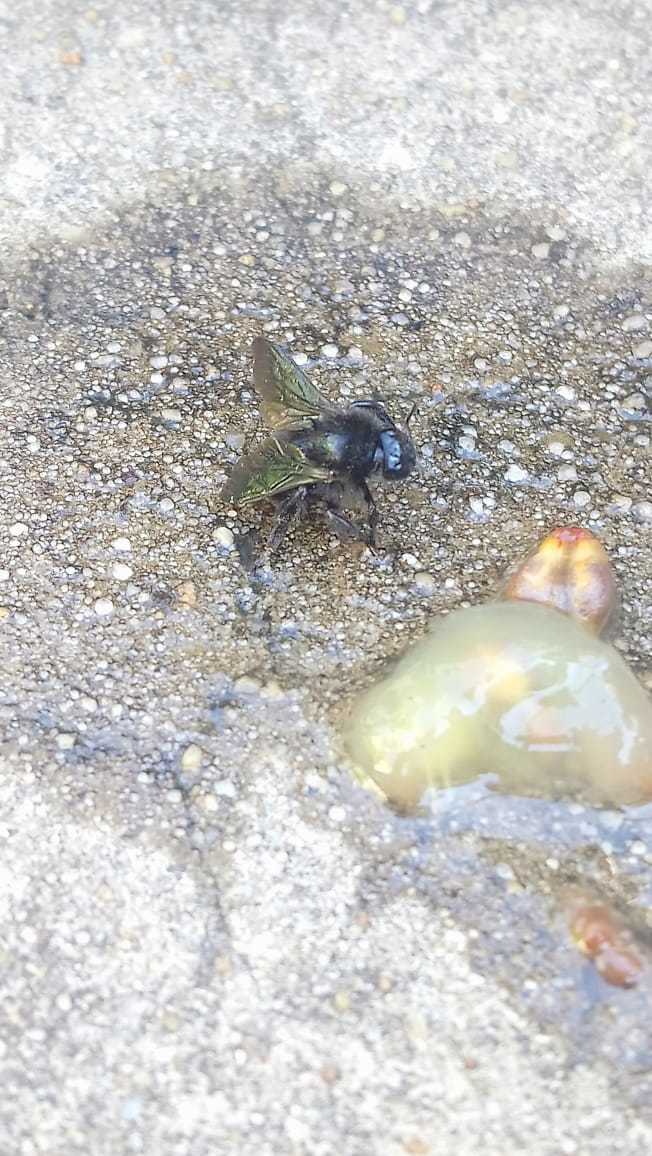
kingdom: Animalia
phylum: Arthropoda
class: Insecta
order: Hymenoptera
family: Apidae
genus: Bombus
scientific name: Bombus pauloensis
